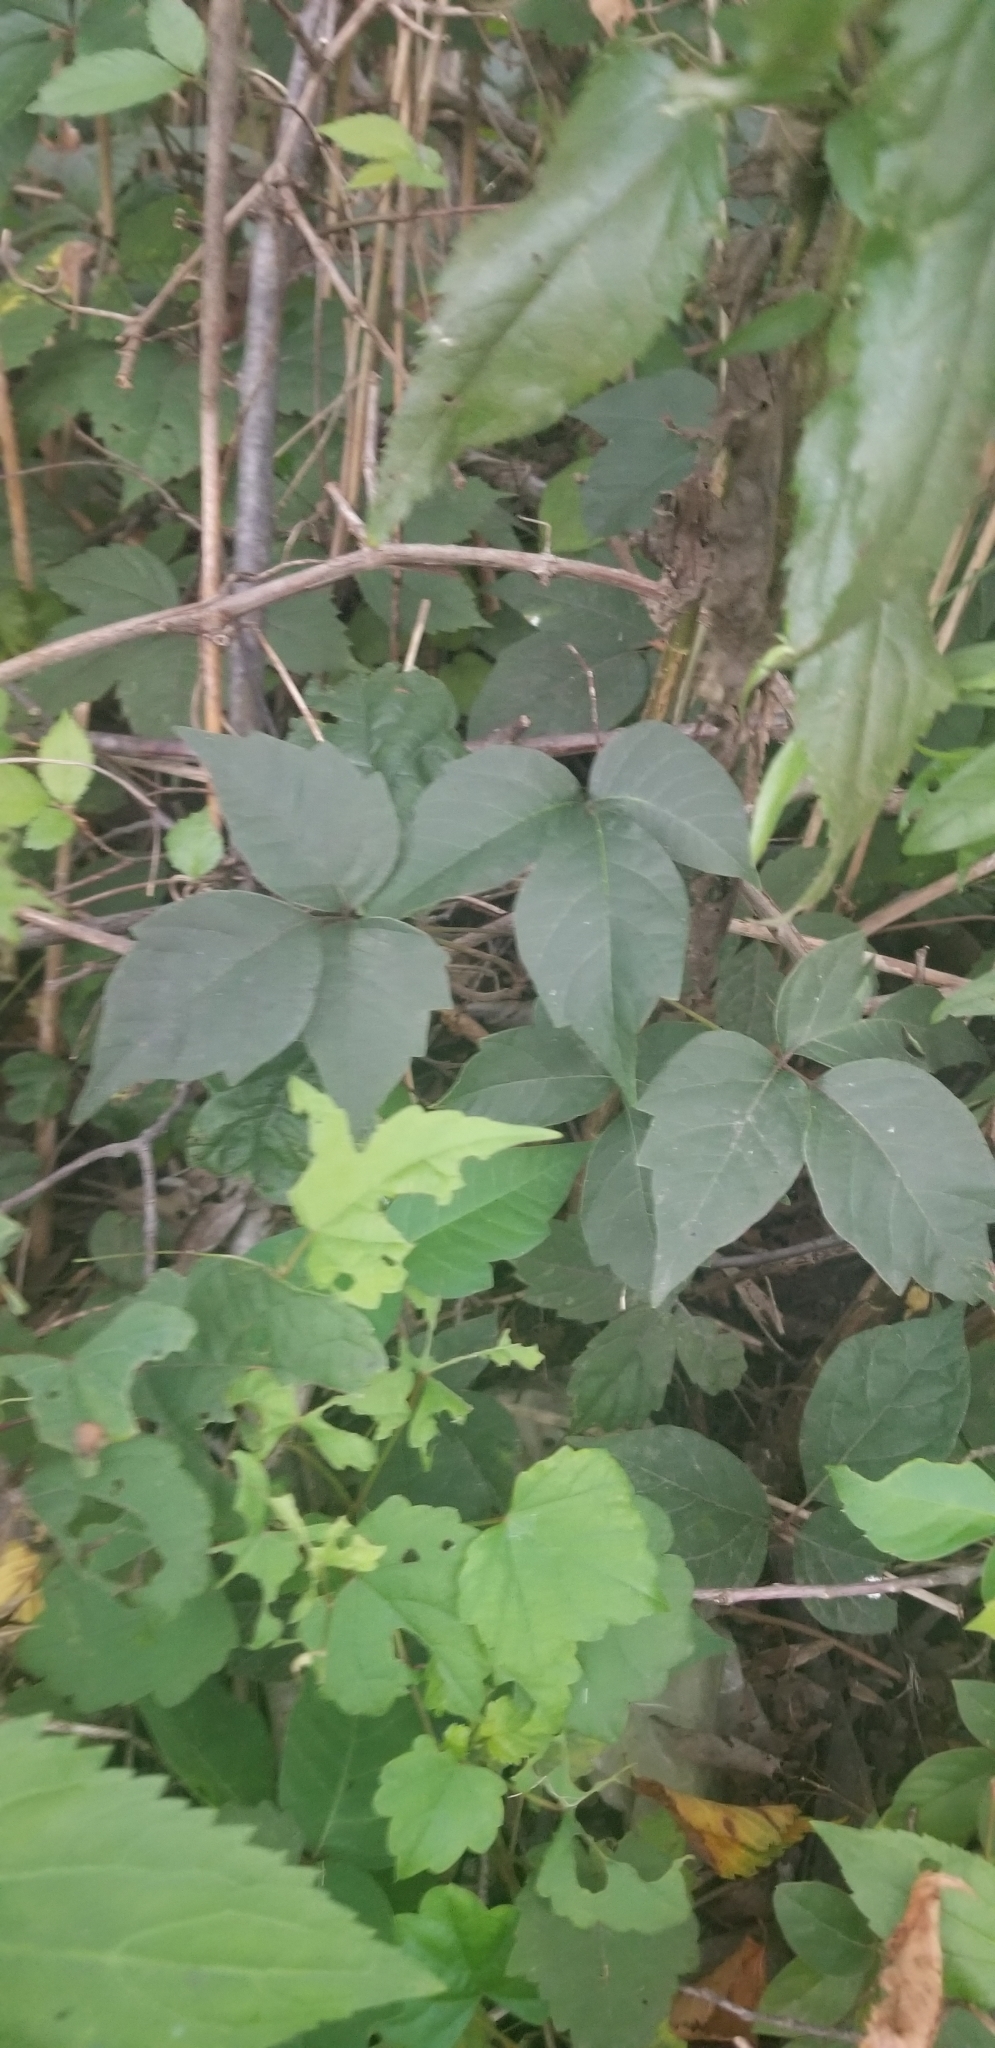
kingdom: Plantae
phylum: Tracheophyta
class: Magnoliopsida
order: Sapindales
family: Anacardiaceae
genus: Toxicodendron
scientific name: Toxicodendron radicans
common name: Poison ivy
